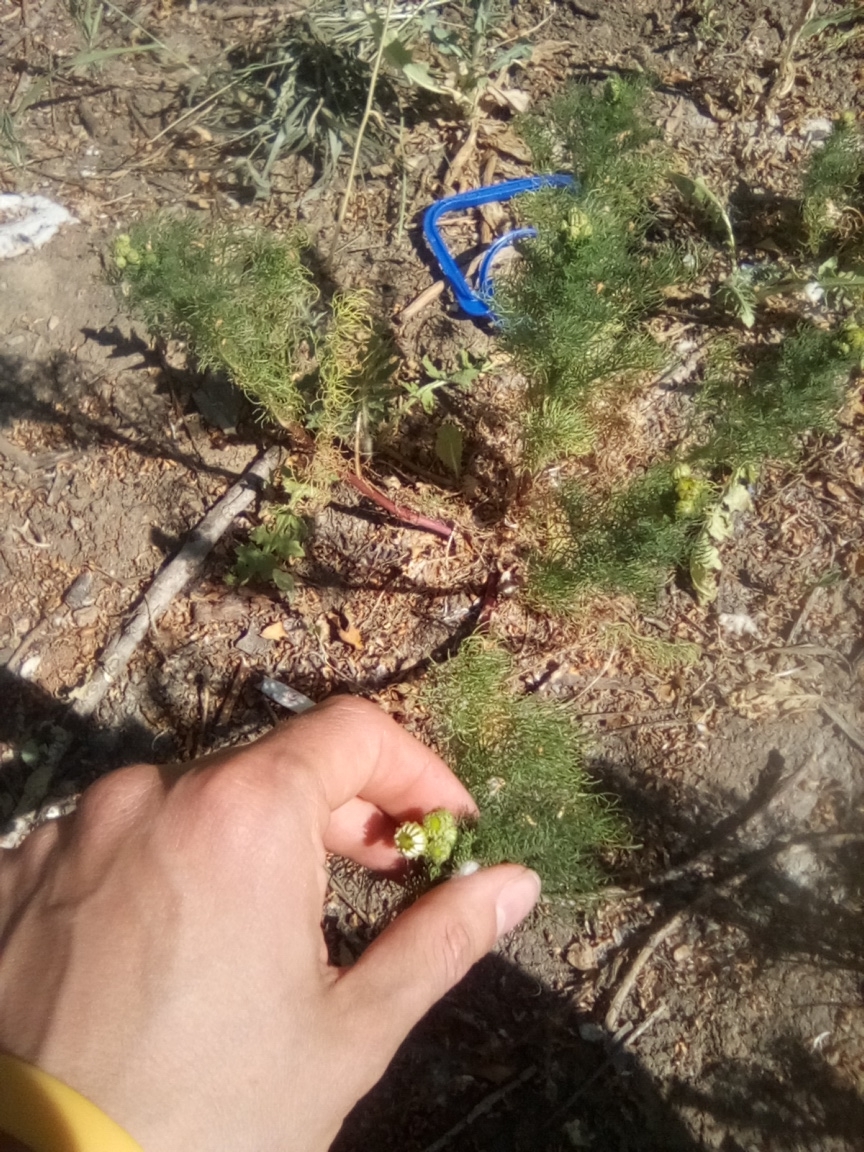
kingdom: Plantae
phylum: Tracheophyta
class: Magnoliopsida
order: Asterales
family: Asteraceae
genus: Tripleurospermum
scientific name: Tripleurospermum inodorum
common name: Scentless mayweed
